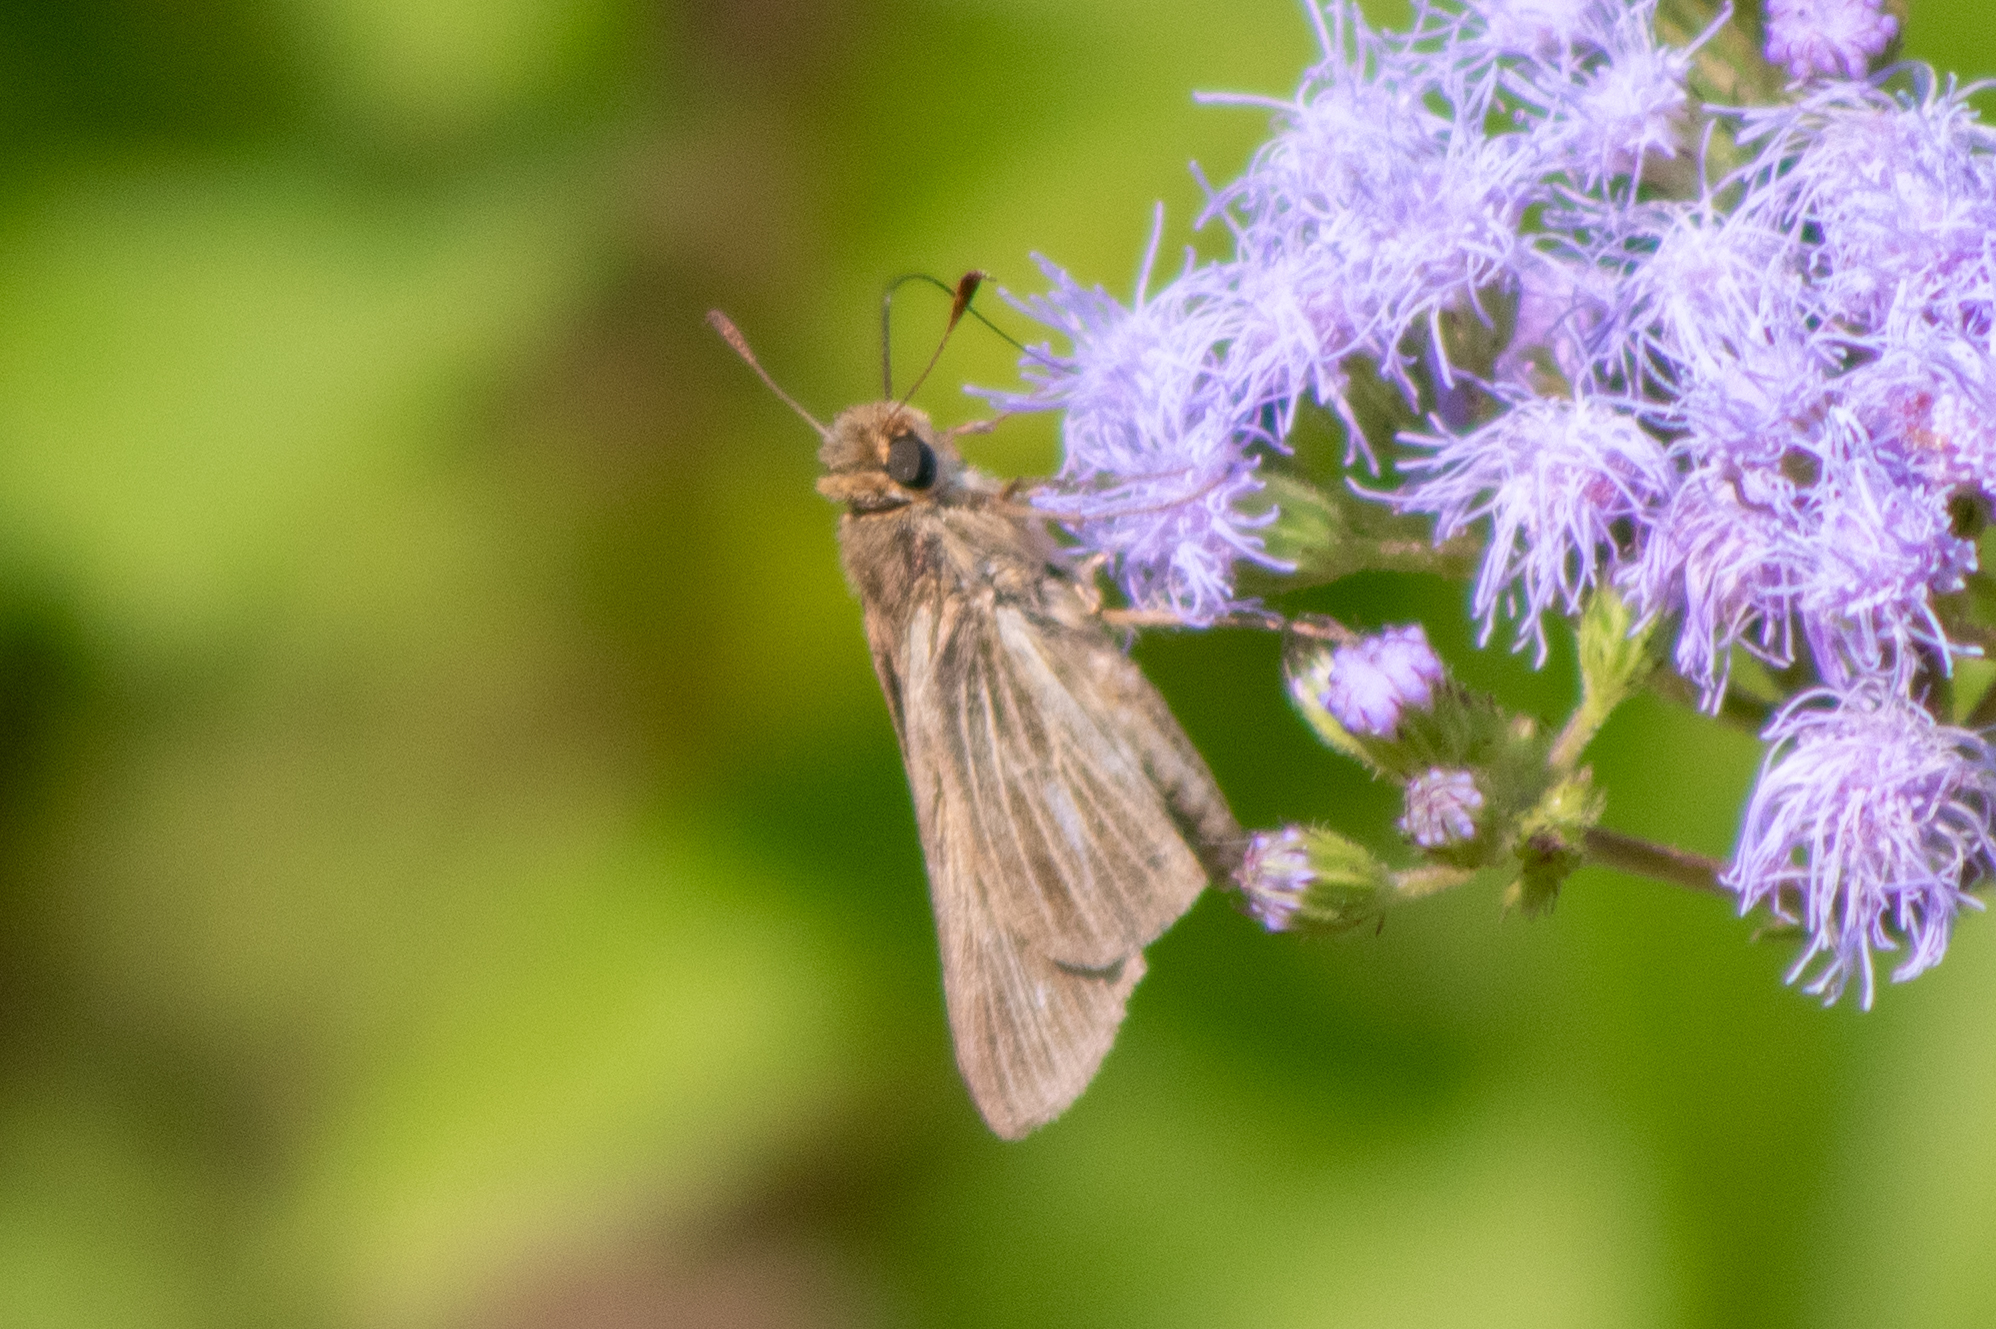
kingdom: Animalia
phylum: Arthropoda
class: Insecta
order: Lepidoptera
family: Hesperiidae
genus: Panoquina
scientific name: Panoquina panoquin
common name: Salt marsh skipper
